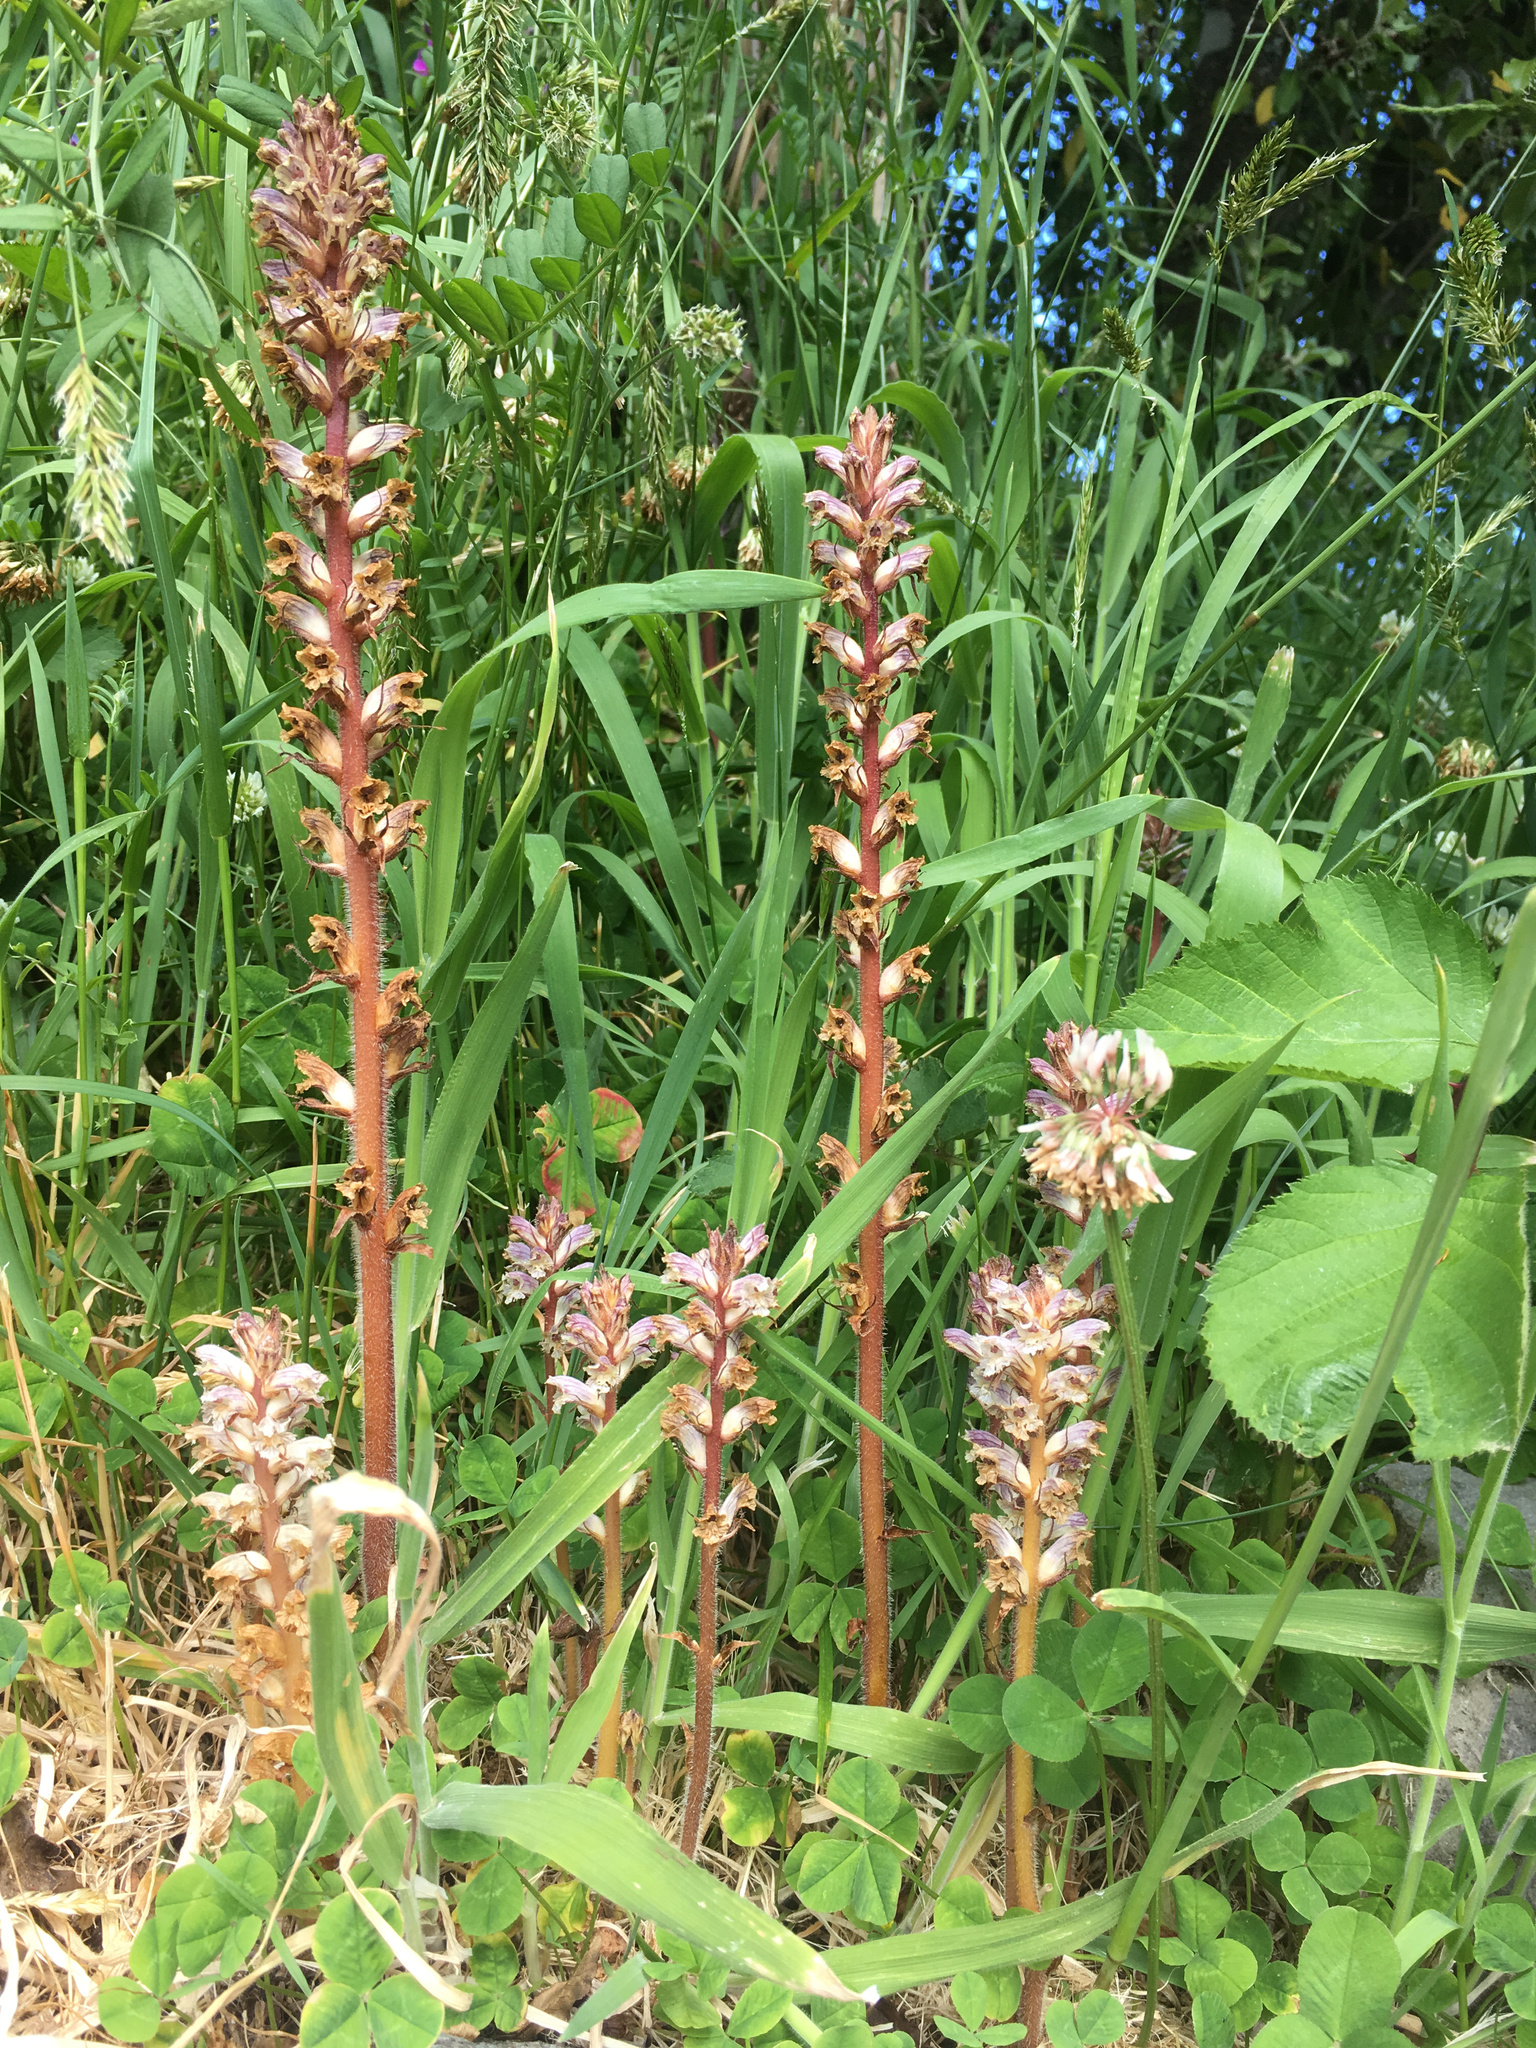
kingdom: Plantae
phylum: Tracheophyta
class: Magnoliopsida
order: Lamiales
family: Orobanchaceae
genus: Orobanche
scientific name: Orobanche minor
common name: Common broomrape
